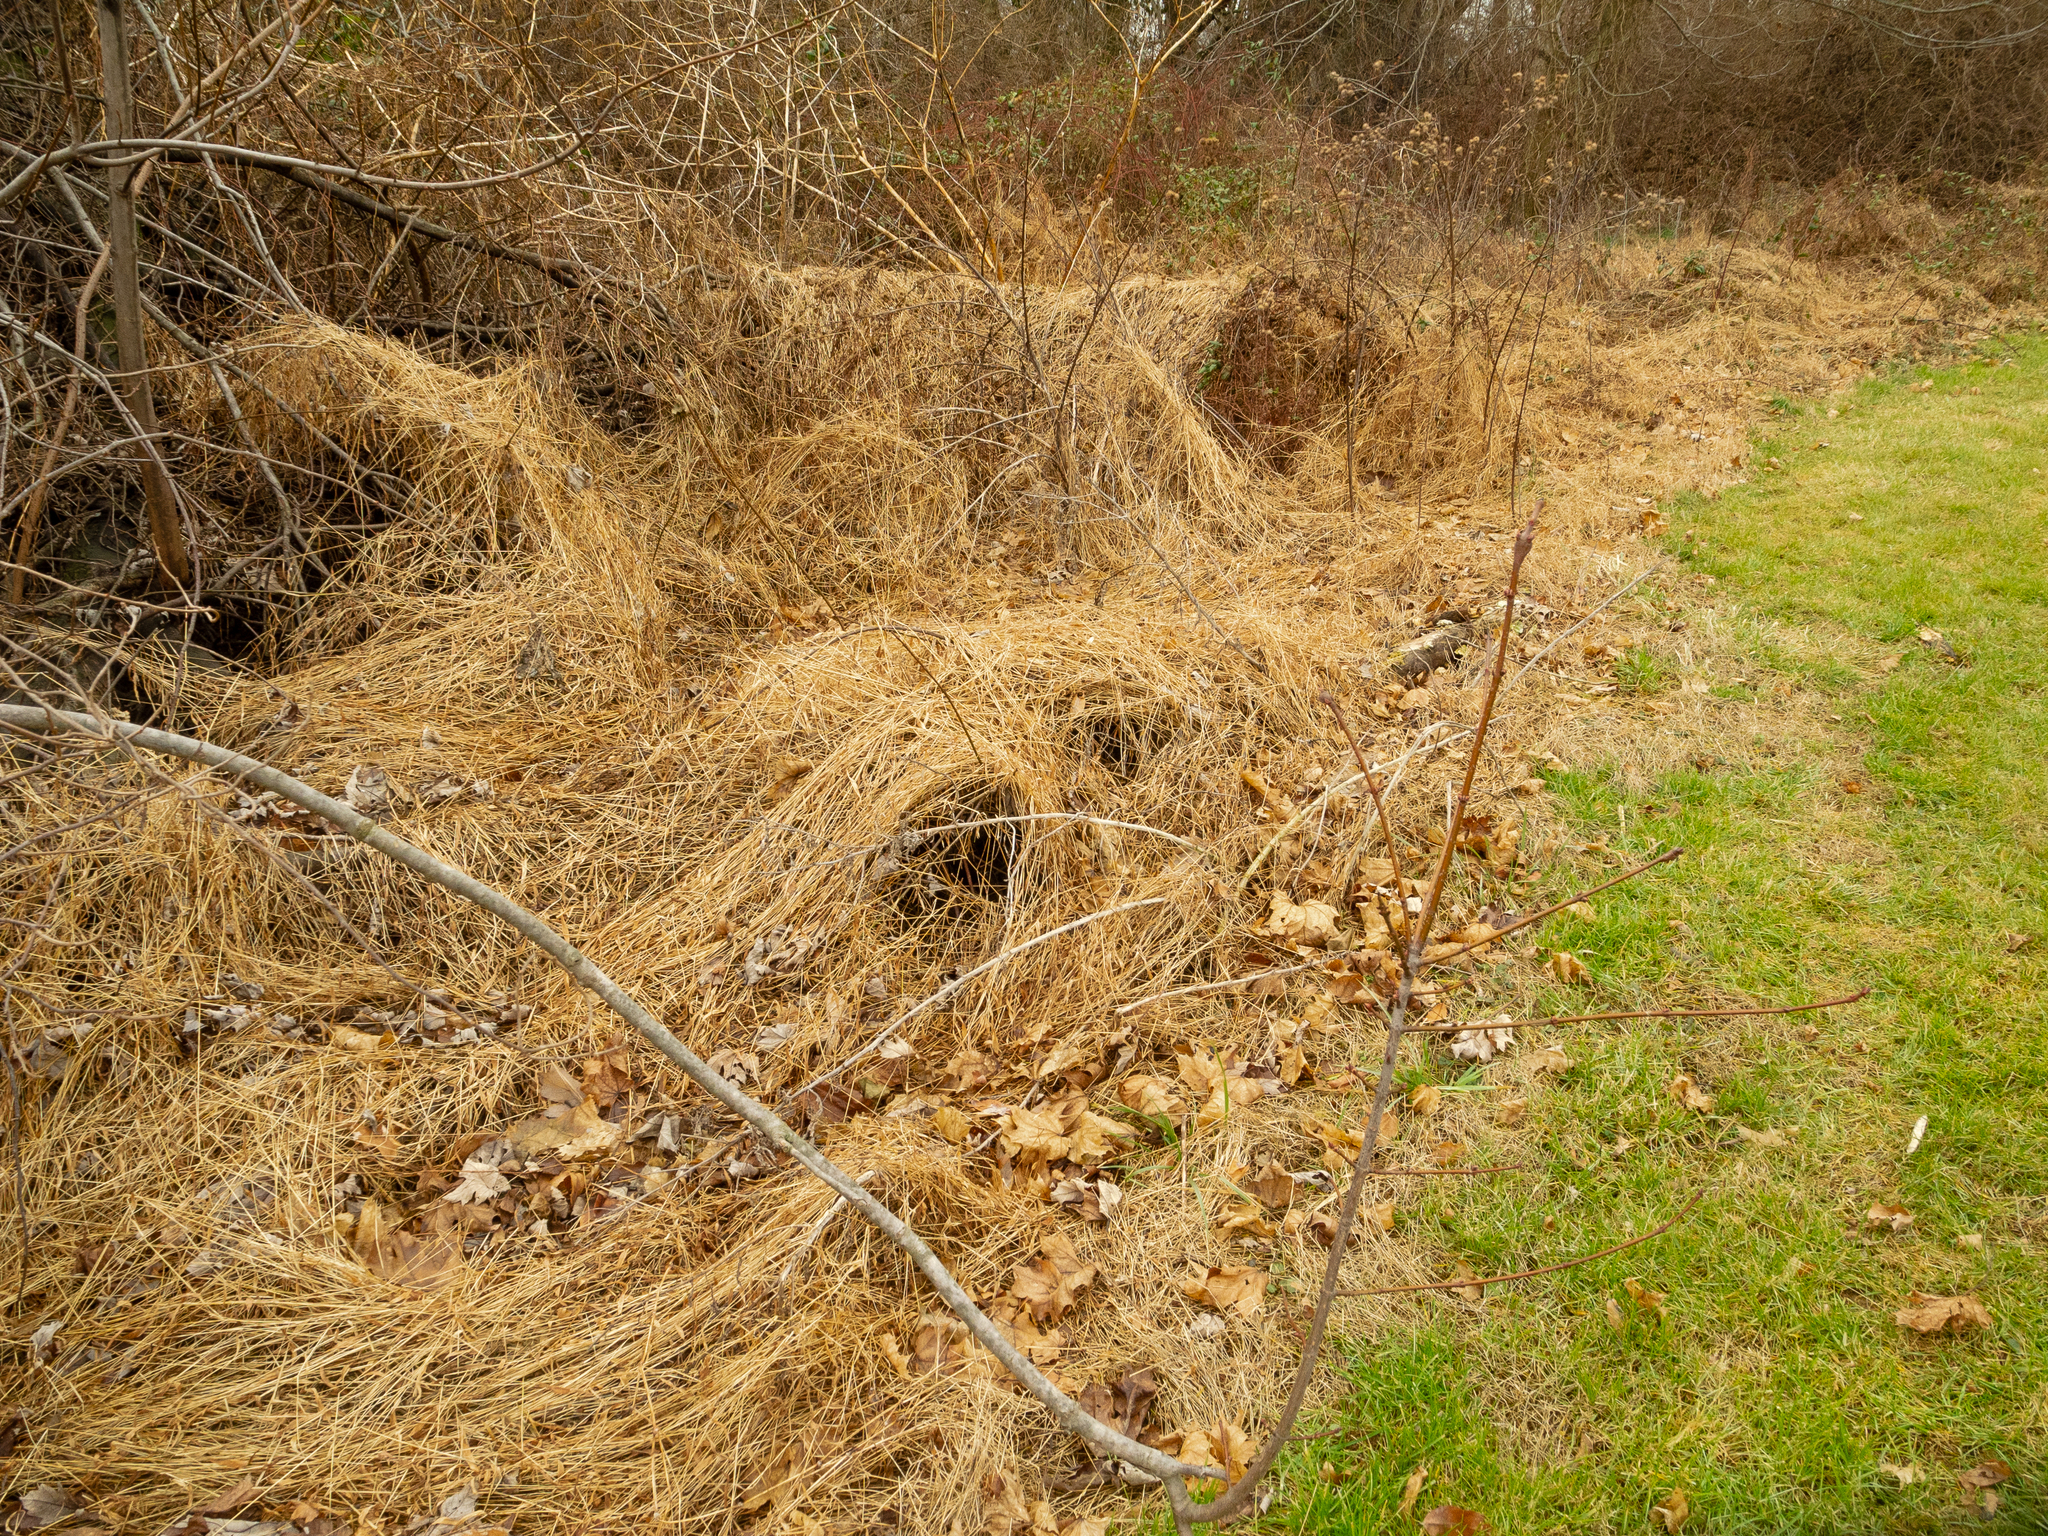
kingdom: Plantae
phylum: Tracheophyta
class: Liliopsida
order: Poales
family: Poaceae
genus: Microstegium
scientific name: Microstegium vimineum
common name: Japanese stiltgrass
